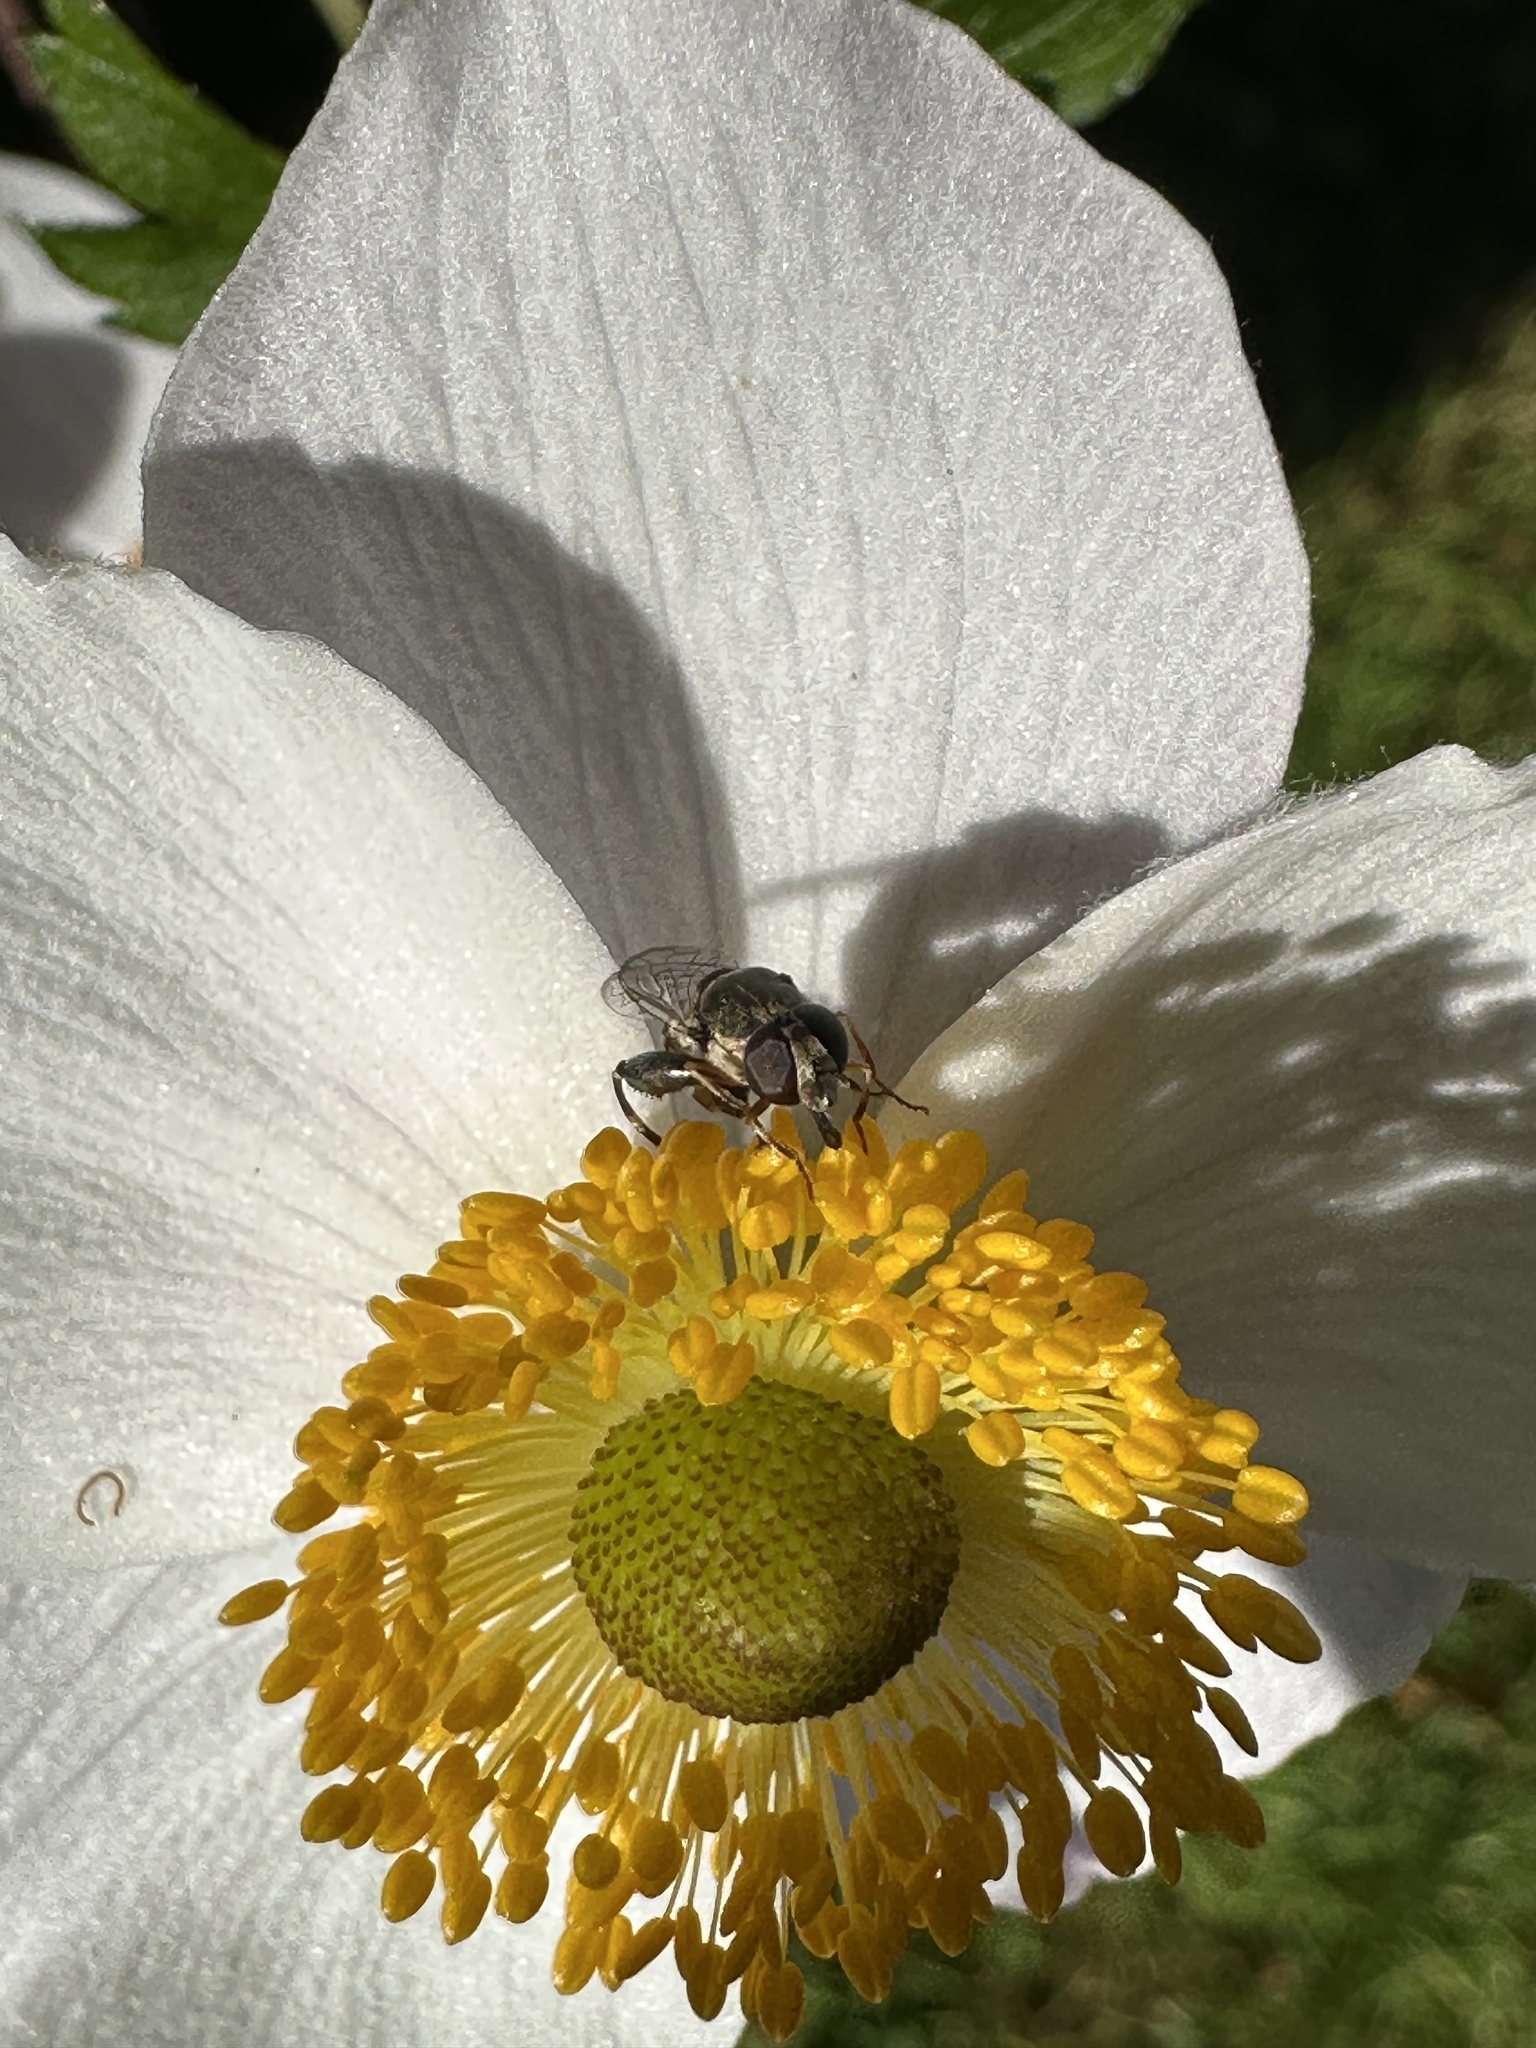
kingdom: Animalia
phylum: Arthropoda
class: Insecta
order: Diptera
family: Syrphidae
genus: Syritta
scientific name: Syritta pipiens
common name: Hover fly
